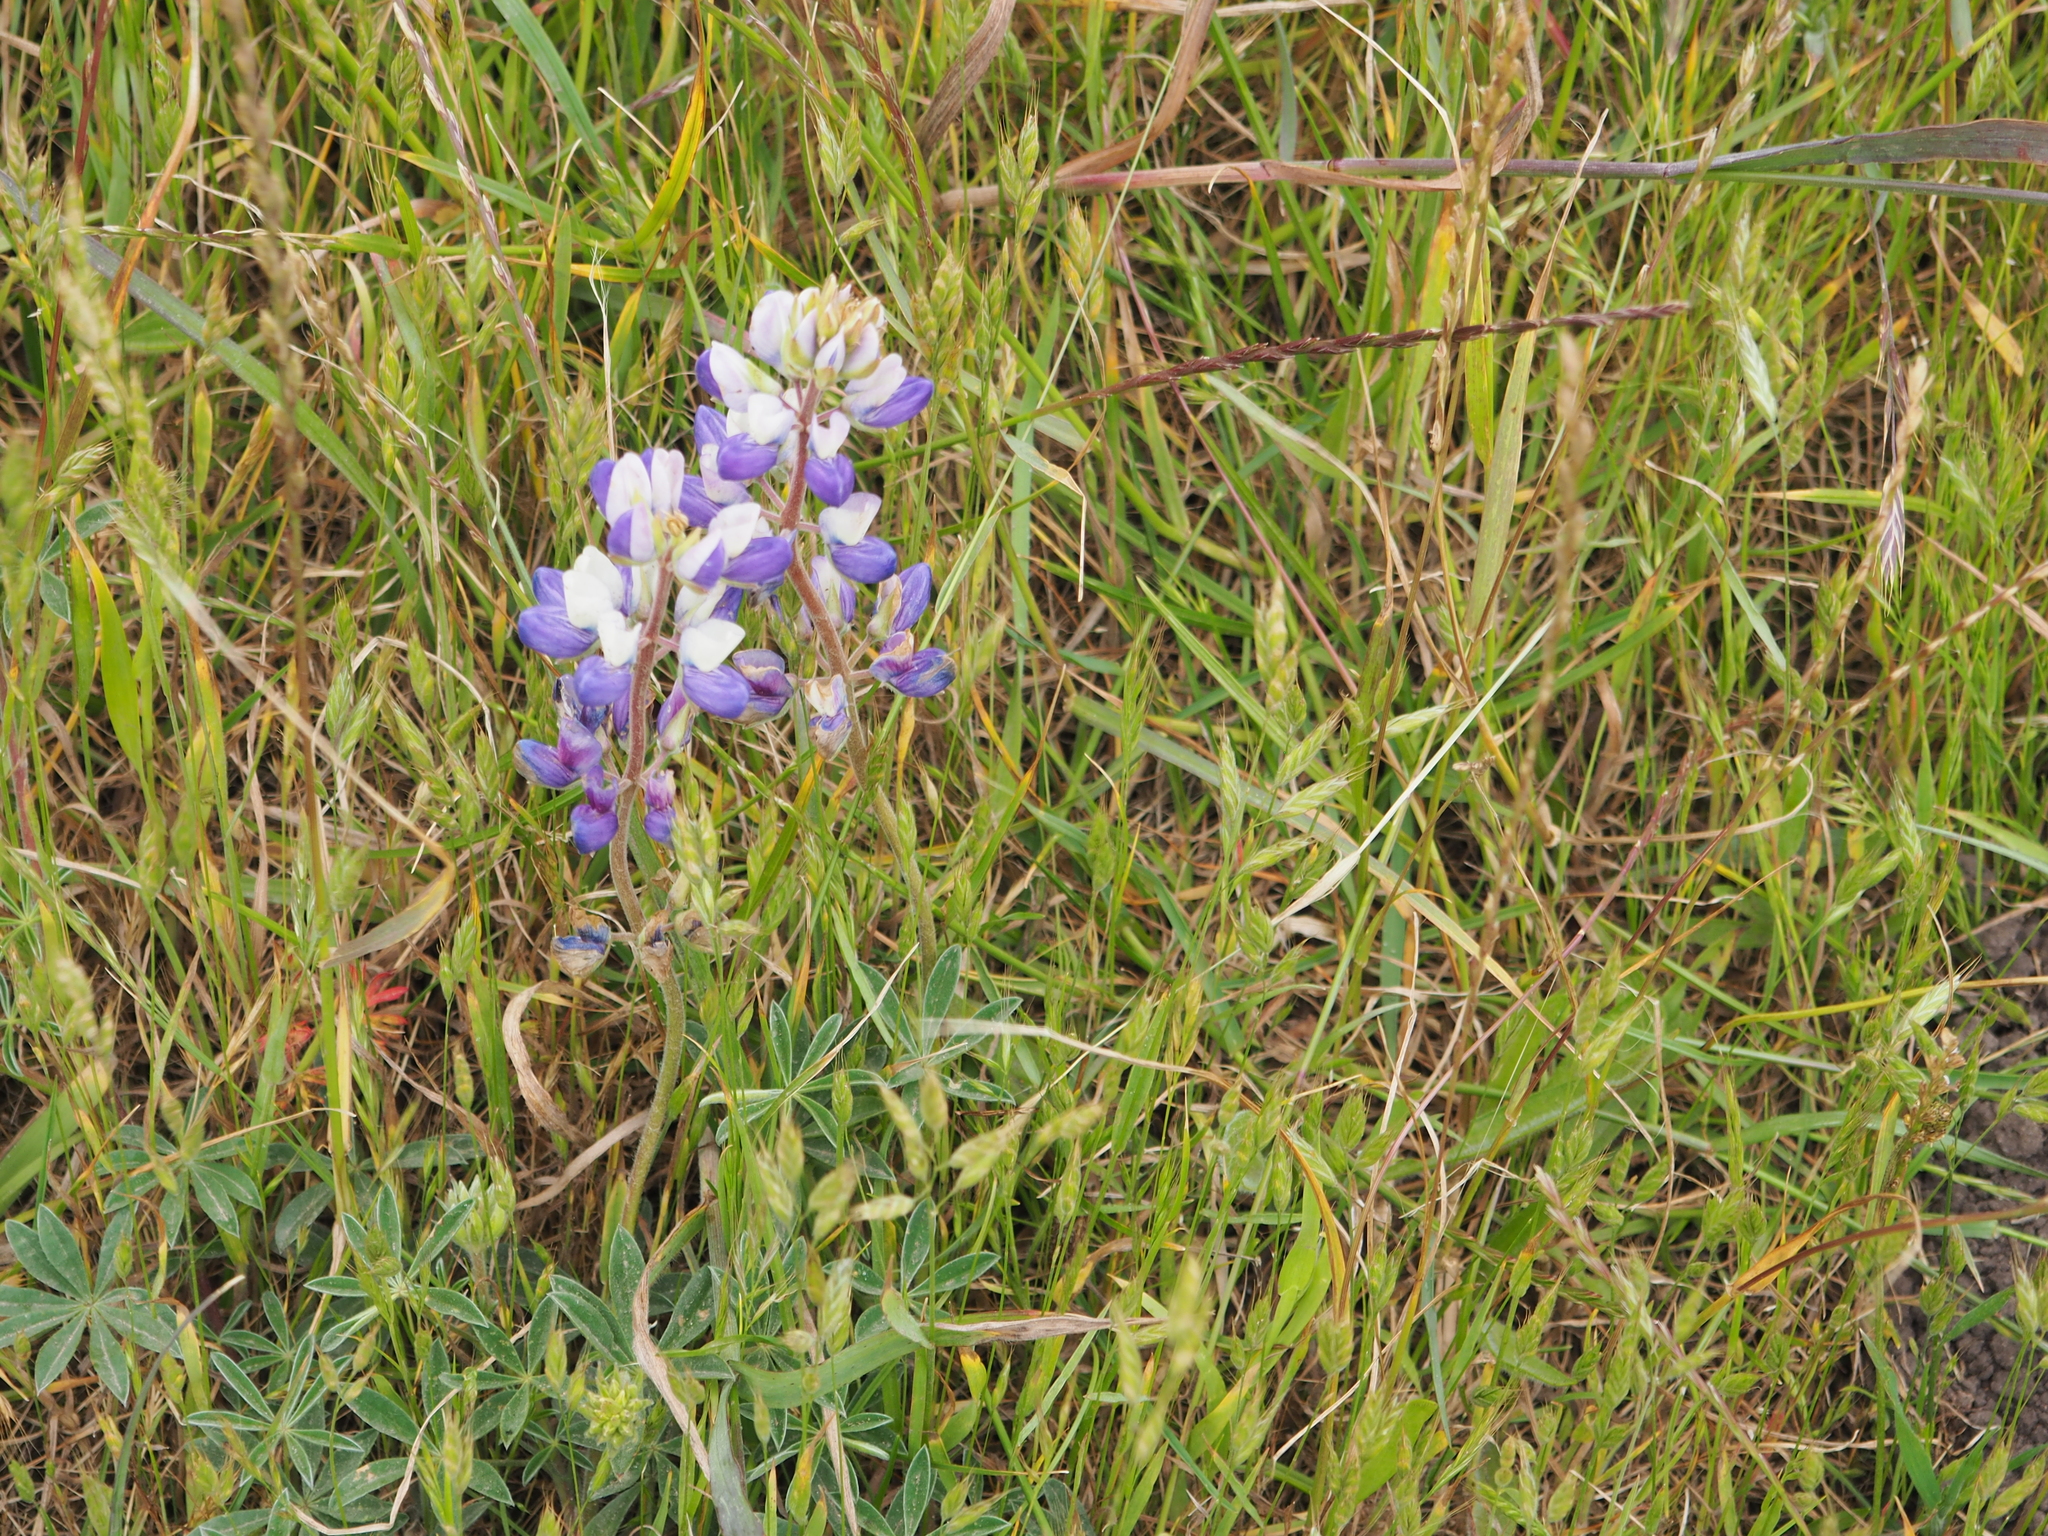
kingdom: Plantae
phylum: Tracheophyta
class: Magnoliopsida
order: Fabales
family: Fabaceae
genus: Lupinus
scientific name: Lupinus nanus
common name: Orean blue lupin
